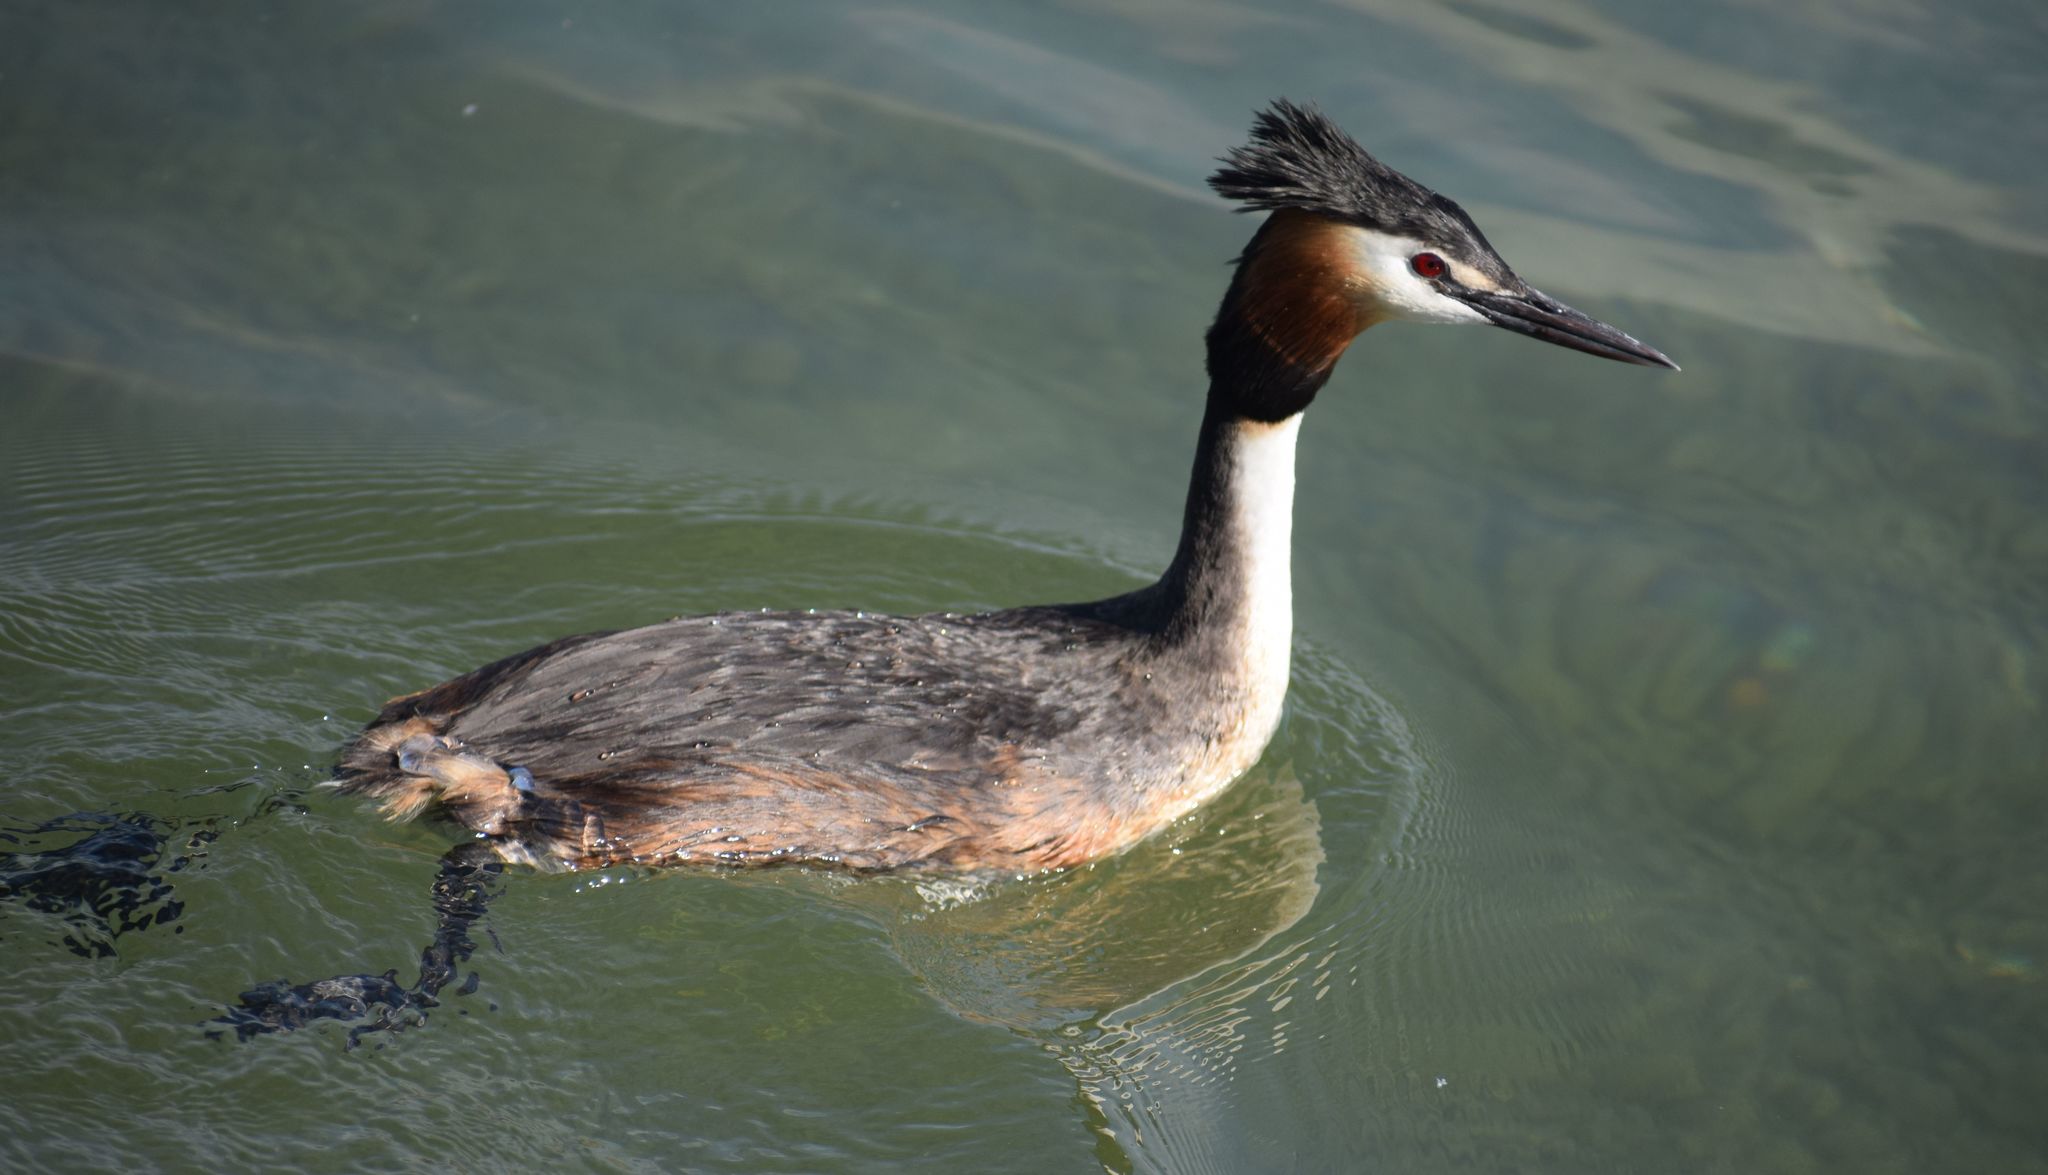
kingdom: Animalia
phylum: Chordata
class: Aves
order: Podicipediformes
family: Podicipedidae
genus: Podiceps
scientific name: Podiceps cristatus
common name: Great crested grebe
